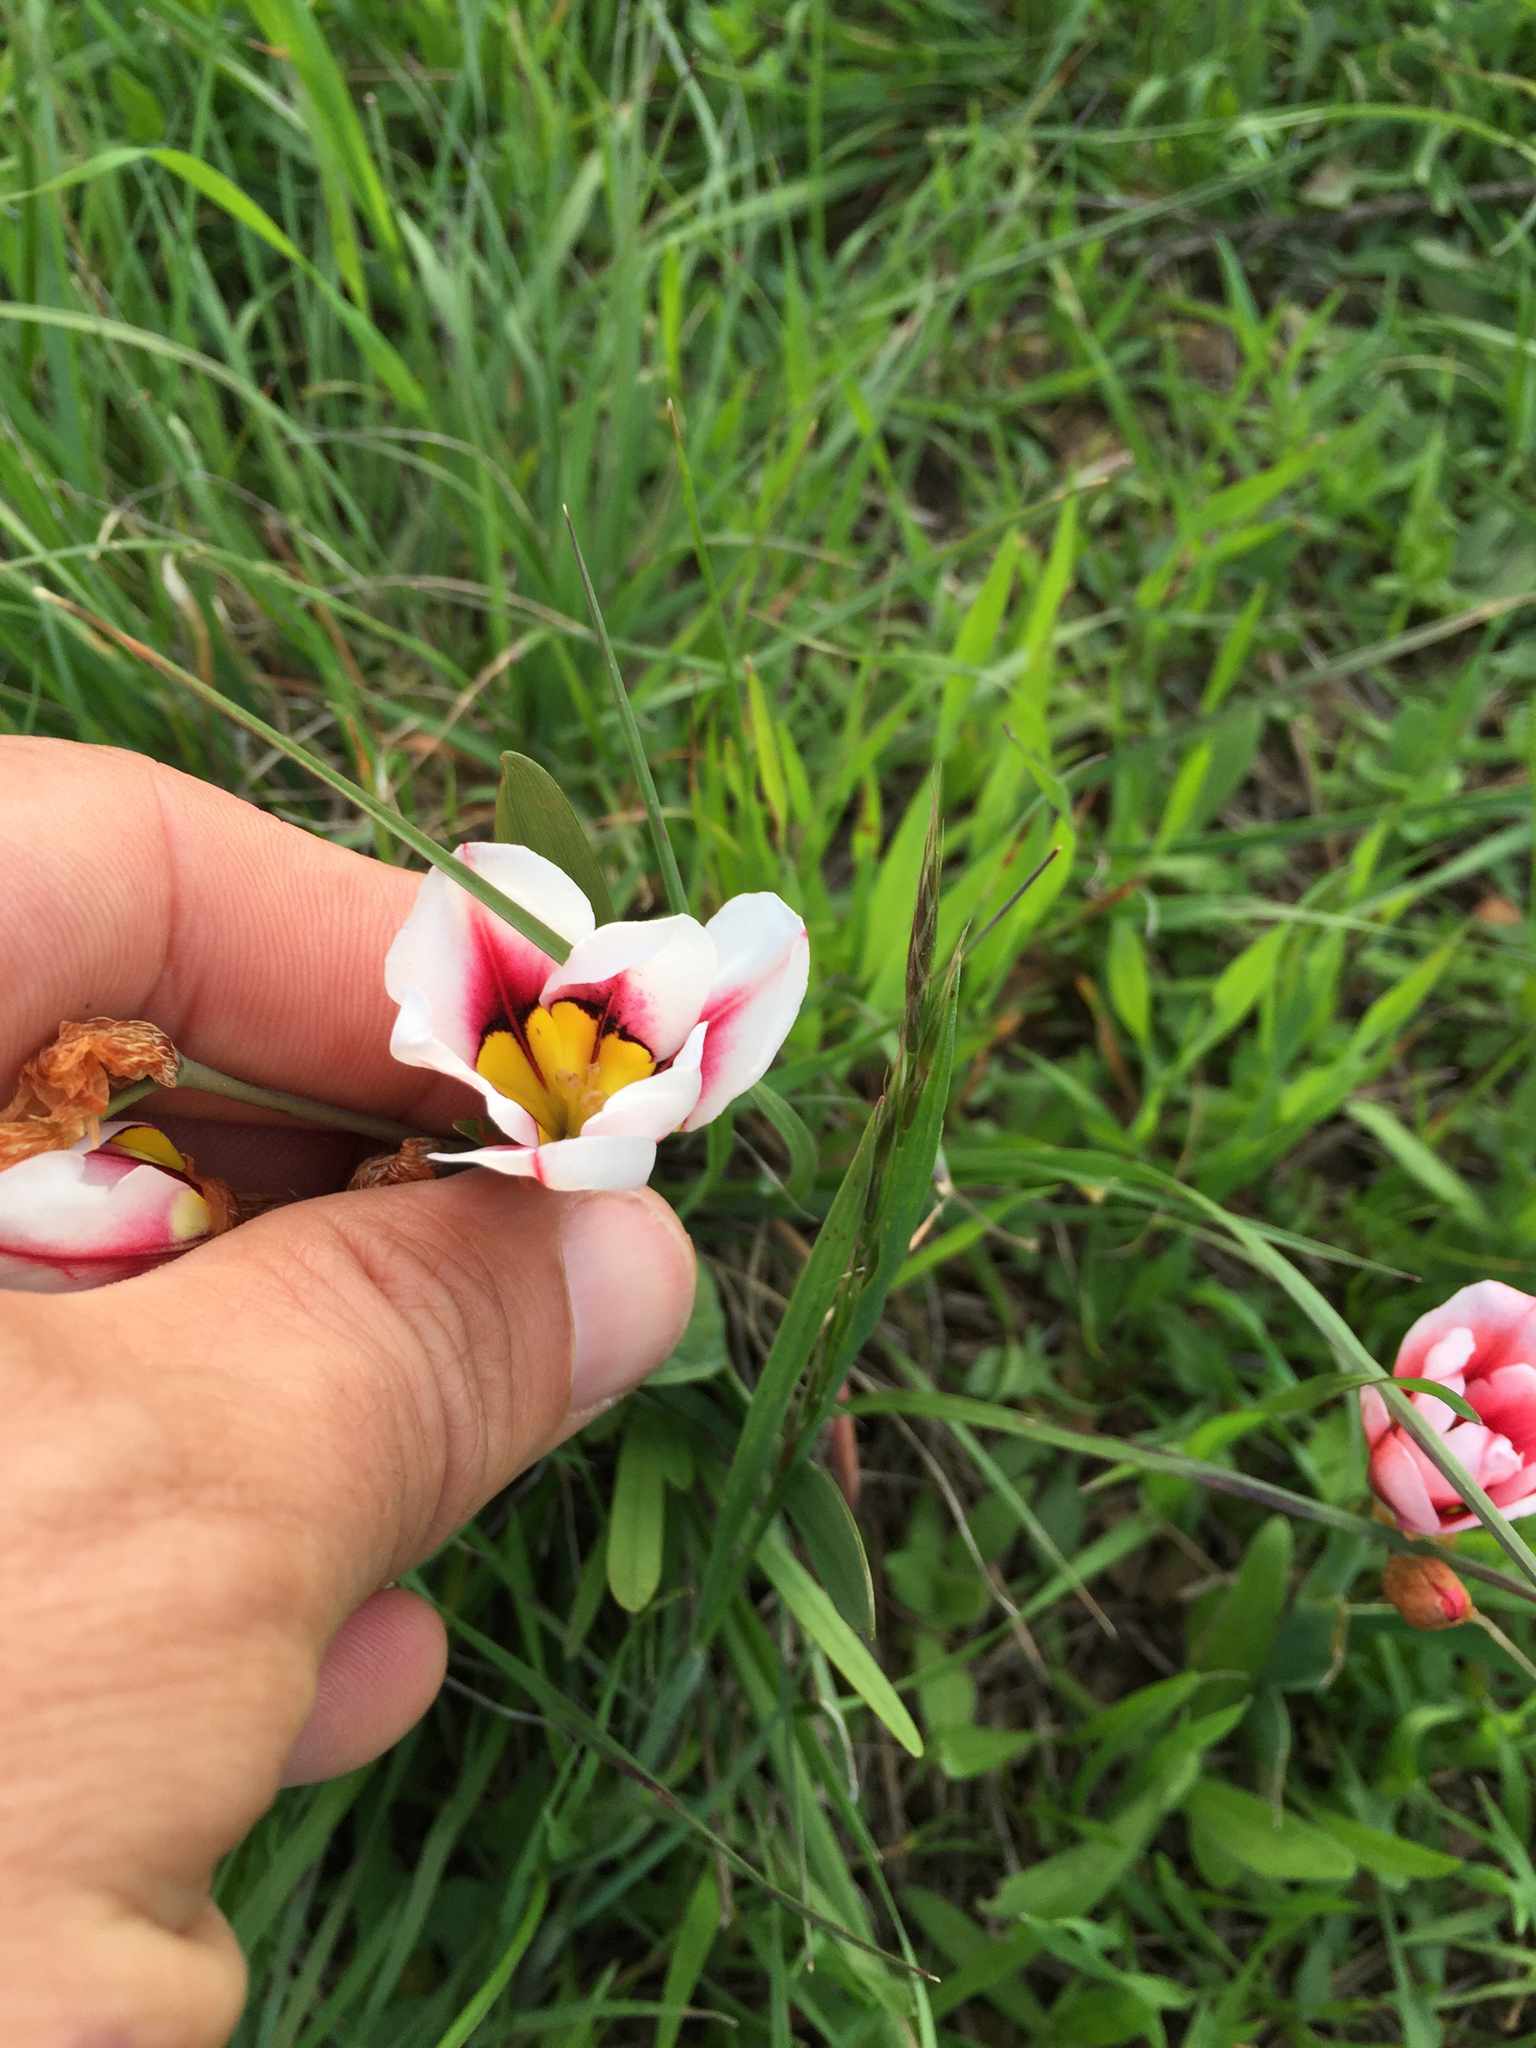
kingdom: Plantae
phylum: Tracheophyta
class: Liliopsida
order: Asparagales
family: Iridaceae
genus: Sparaxis
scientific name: Sparaxis tricolor
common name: Wandflower
